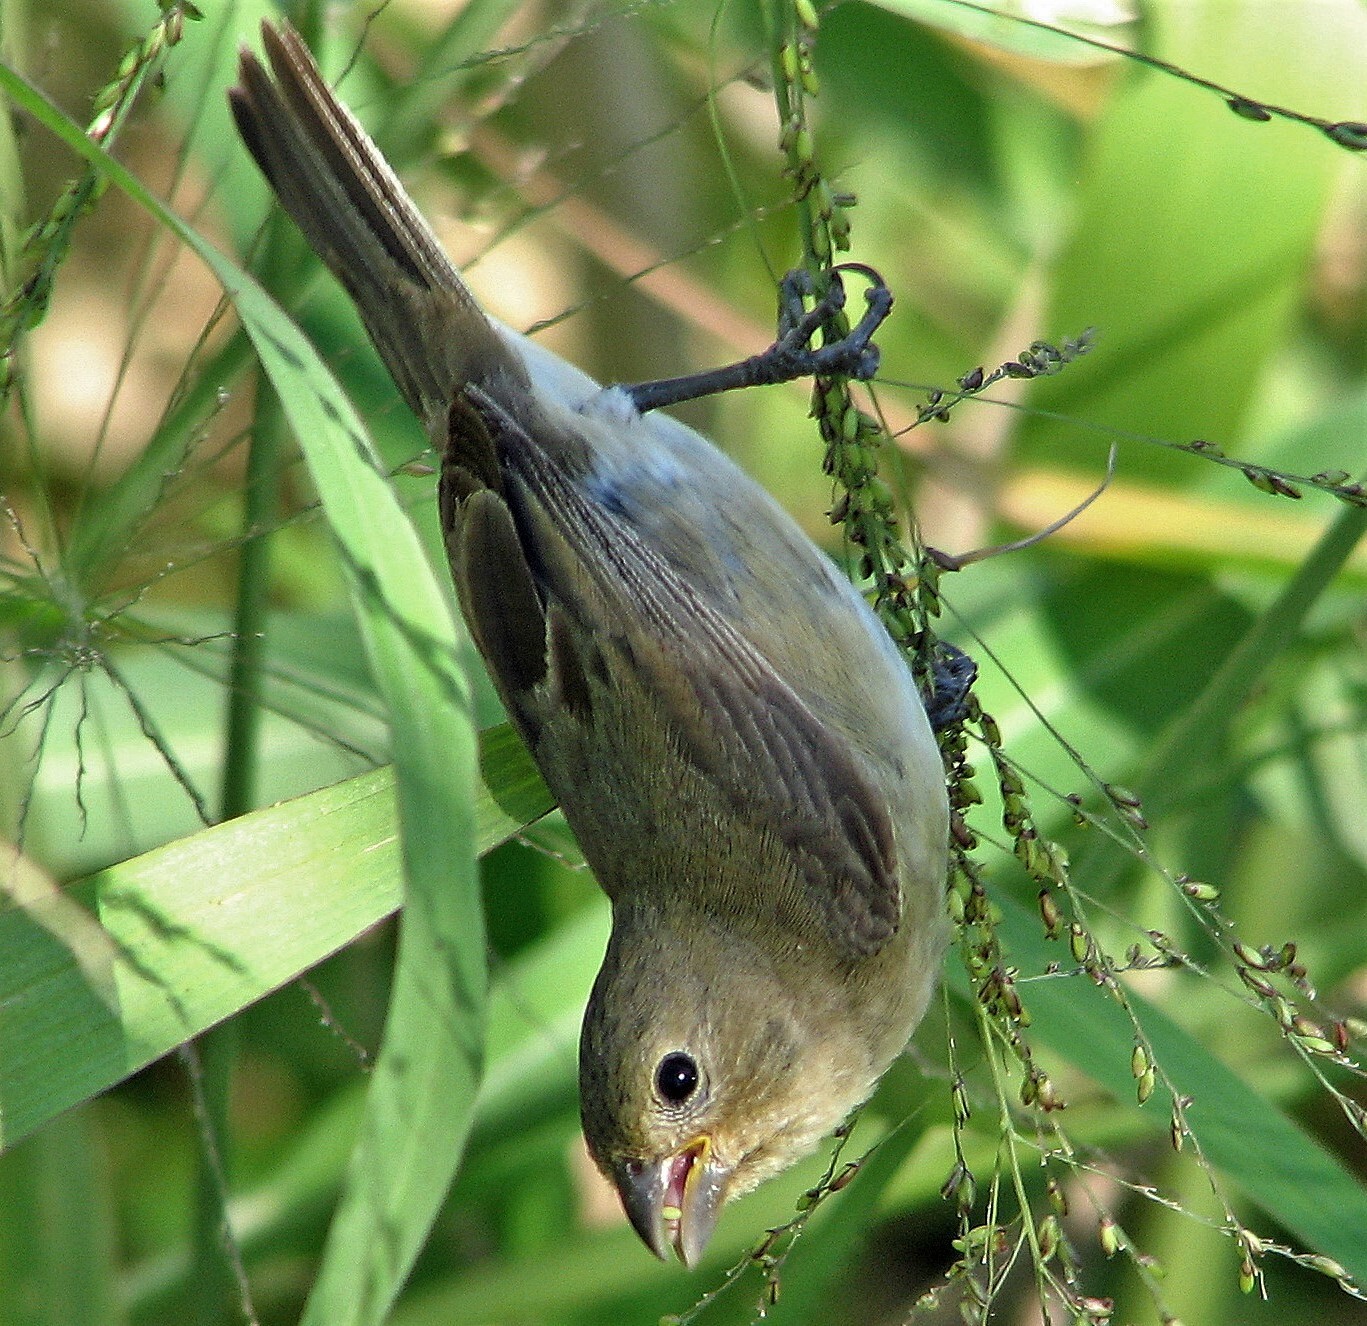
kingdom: Animalia
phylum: Chordata
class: Aves
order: Passeriformes
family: Thraupidae
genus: Sporophila
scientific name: Sporophila caerulescens
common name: Double-collared seedeater
